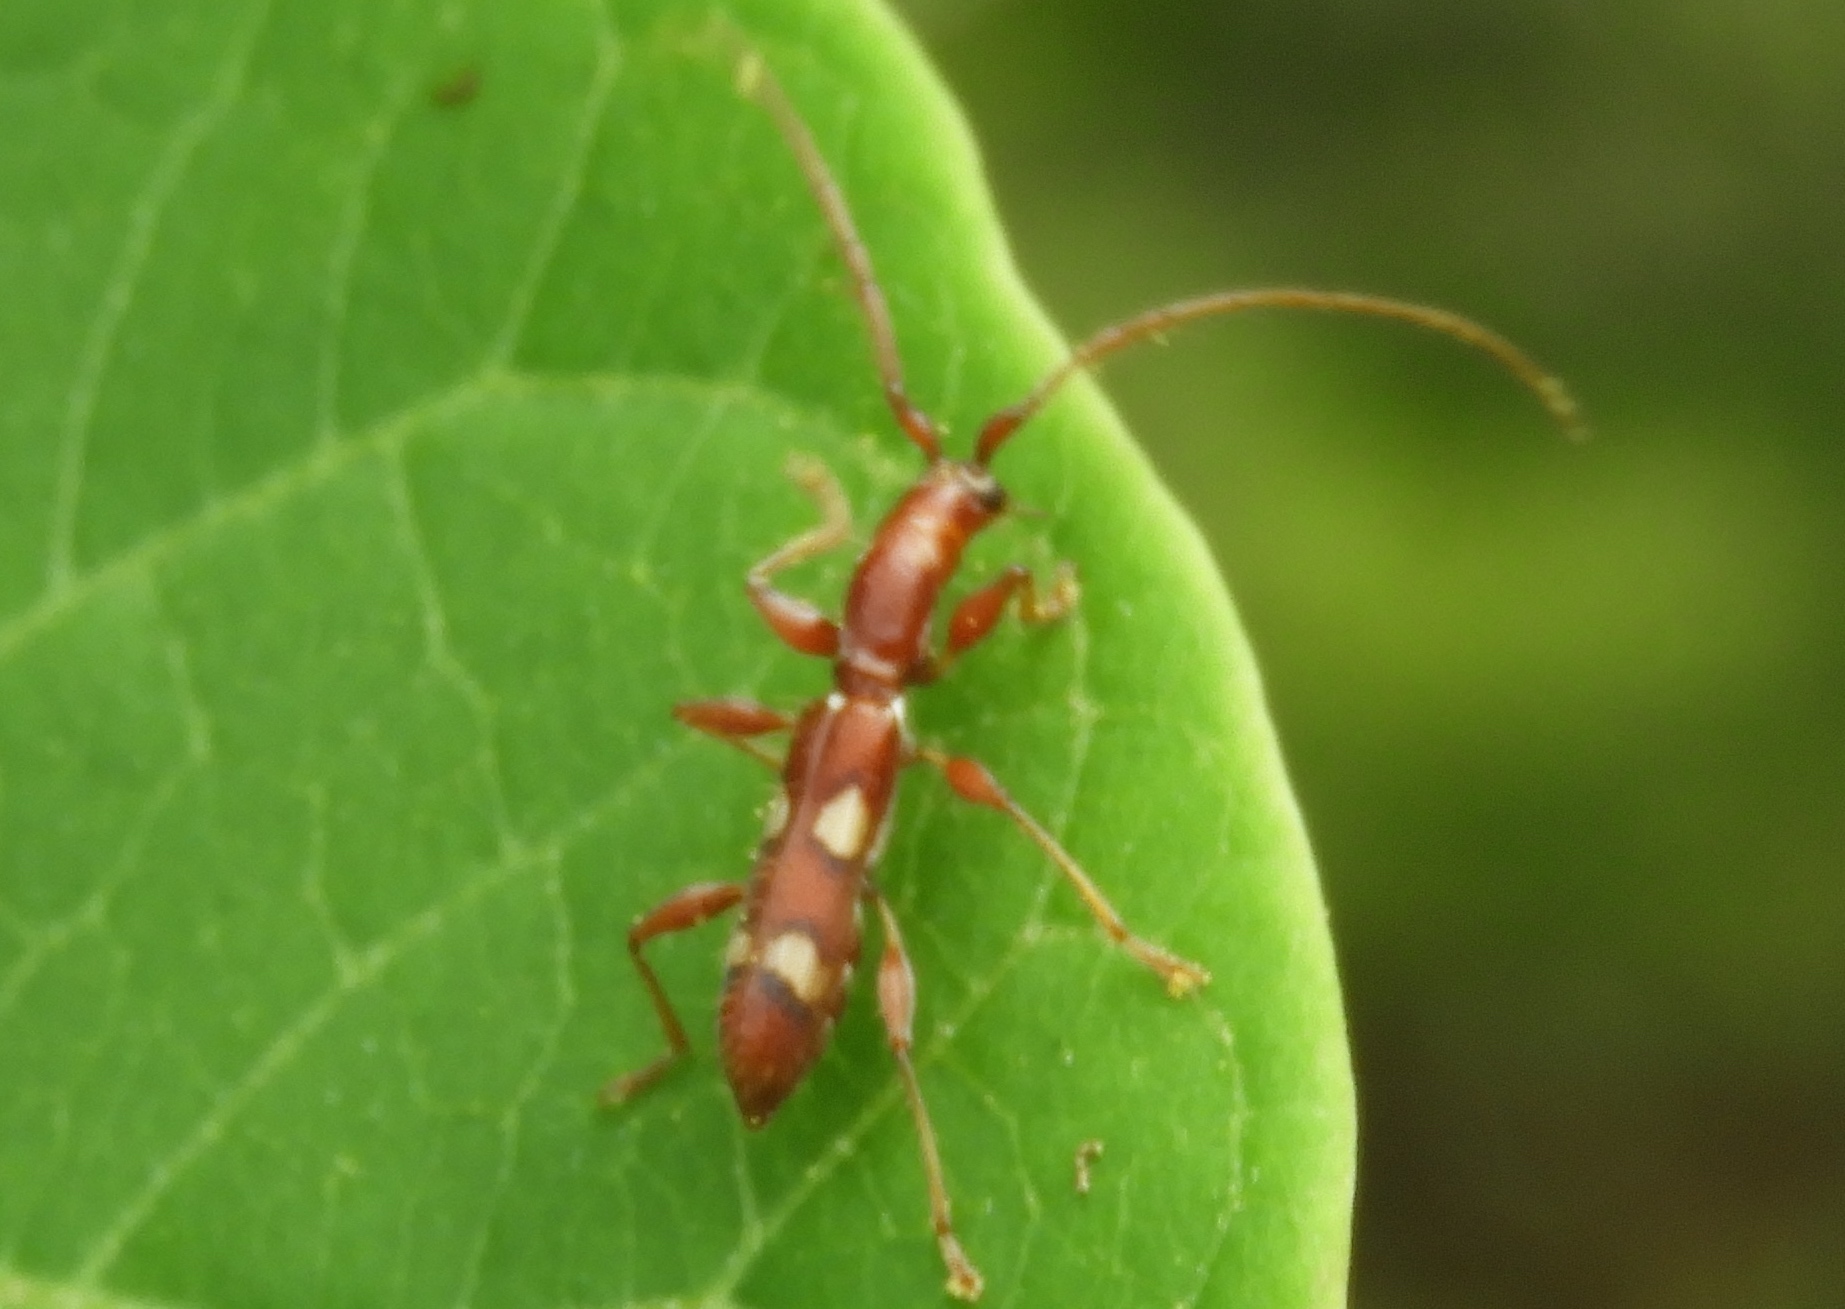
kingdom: Animalia
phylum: Arthropoda
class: Insecta
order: Coleoptera
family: Cerambycidae
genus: Neocompsa
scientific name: Neocompsa macroscina
